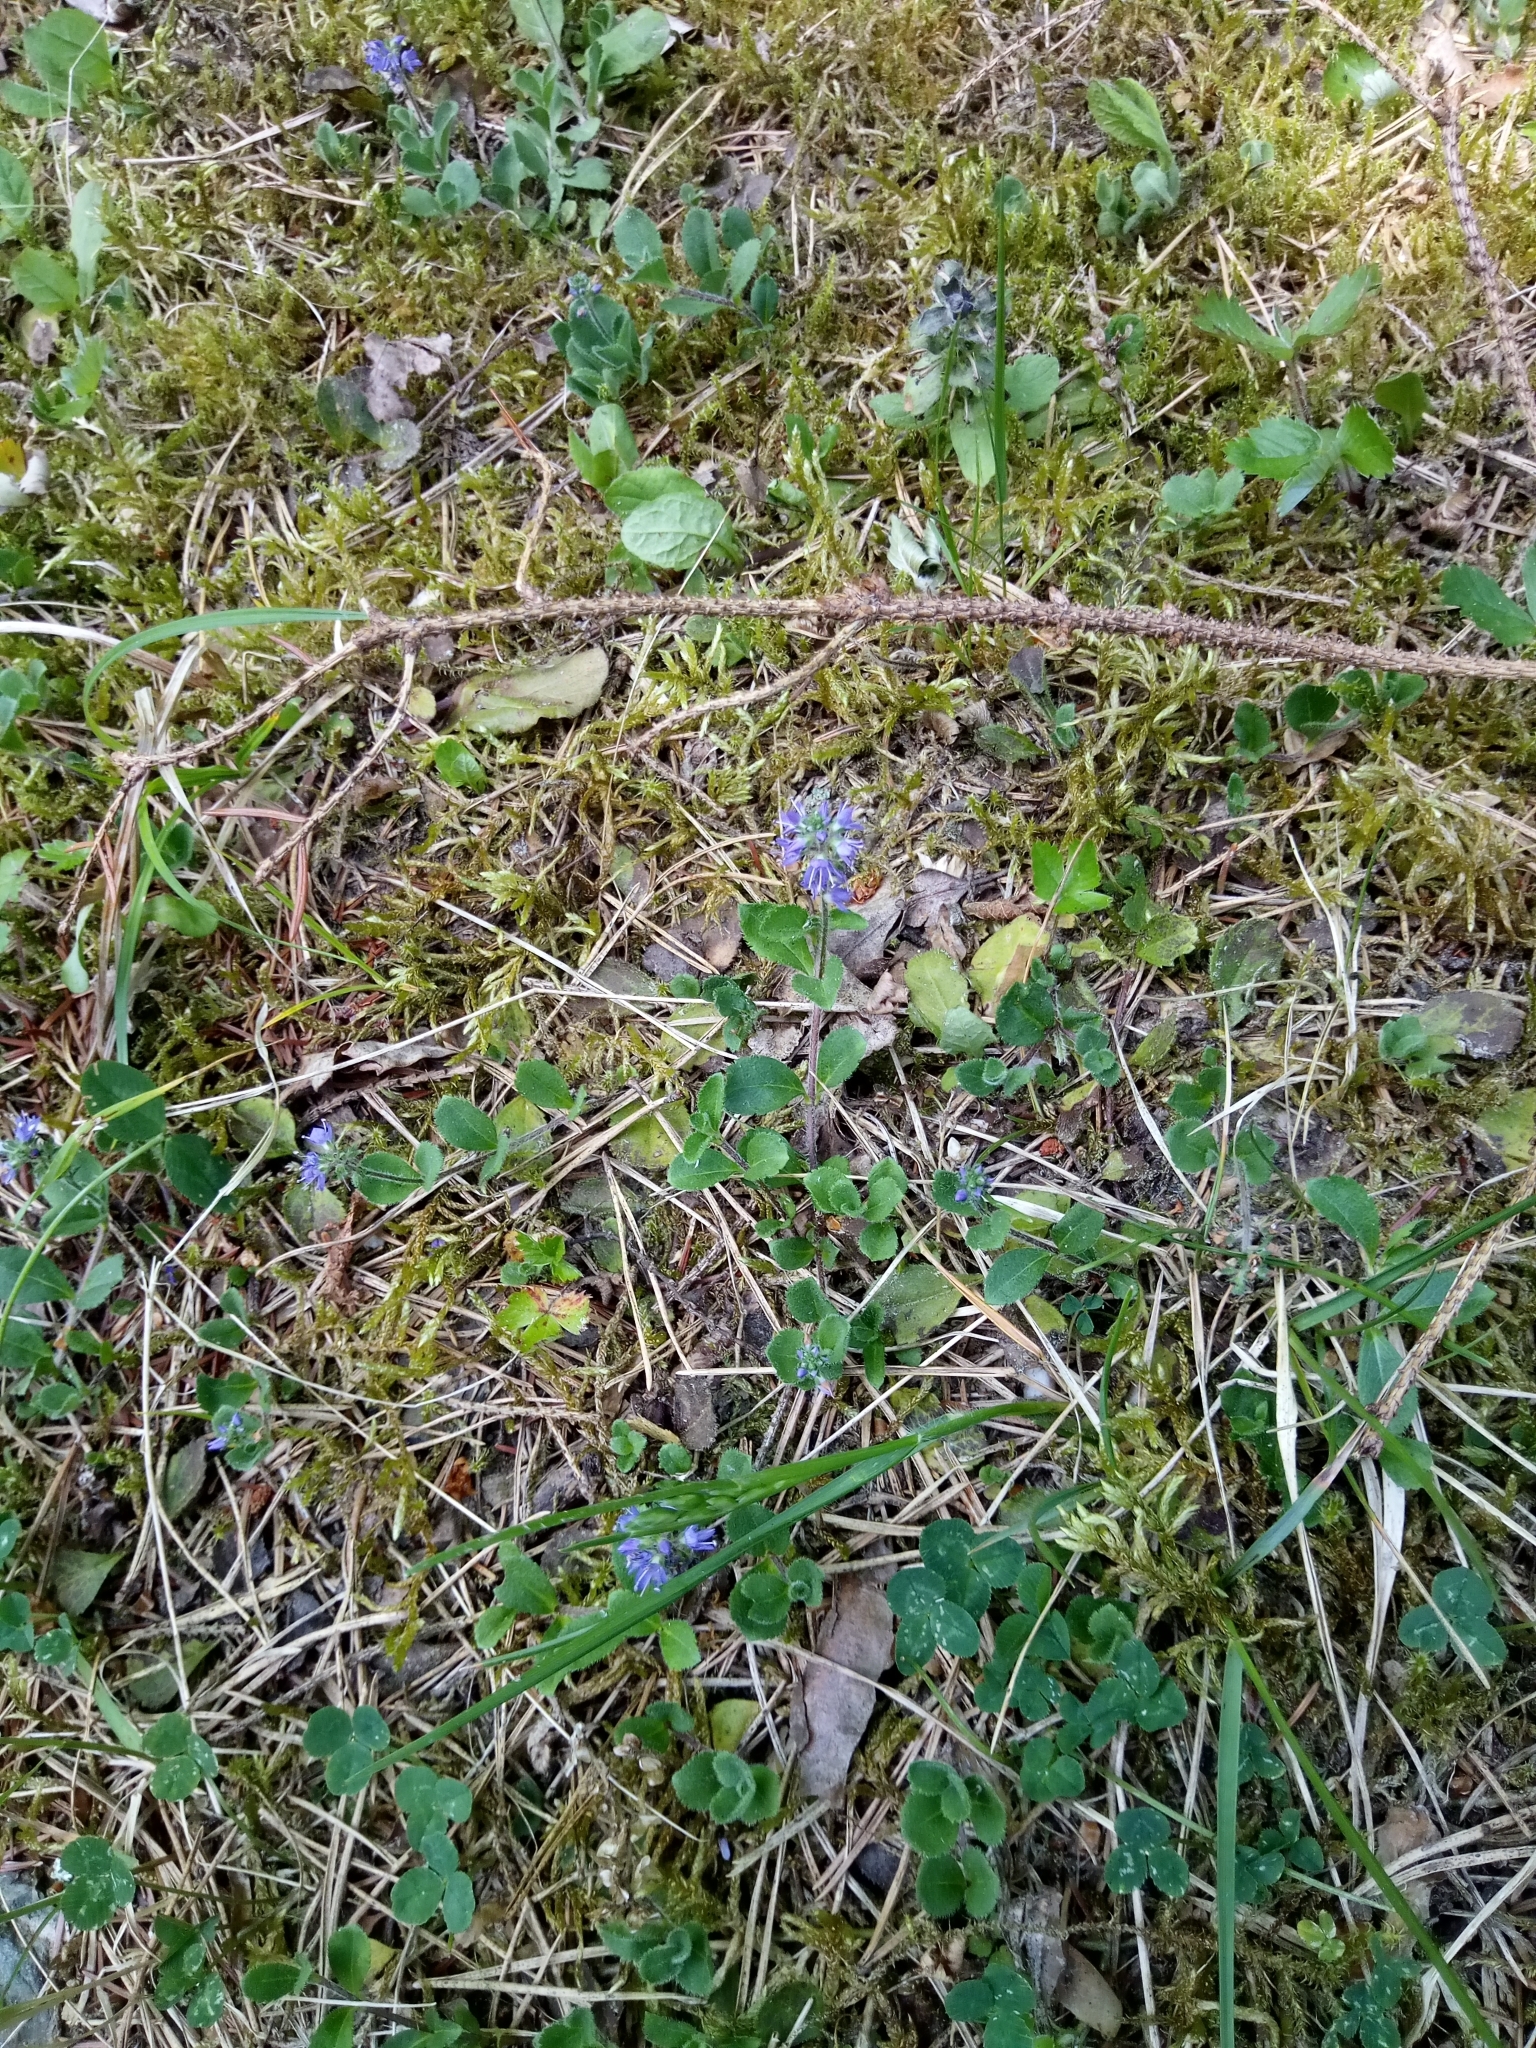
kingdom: Plantae
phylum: Tracheophyta
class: Magnoliopsida
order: Lamiales
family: Plantaginaceae
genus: Veronica
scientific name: Veronica officinalis
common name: Common speedwell
